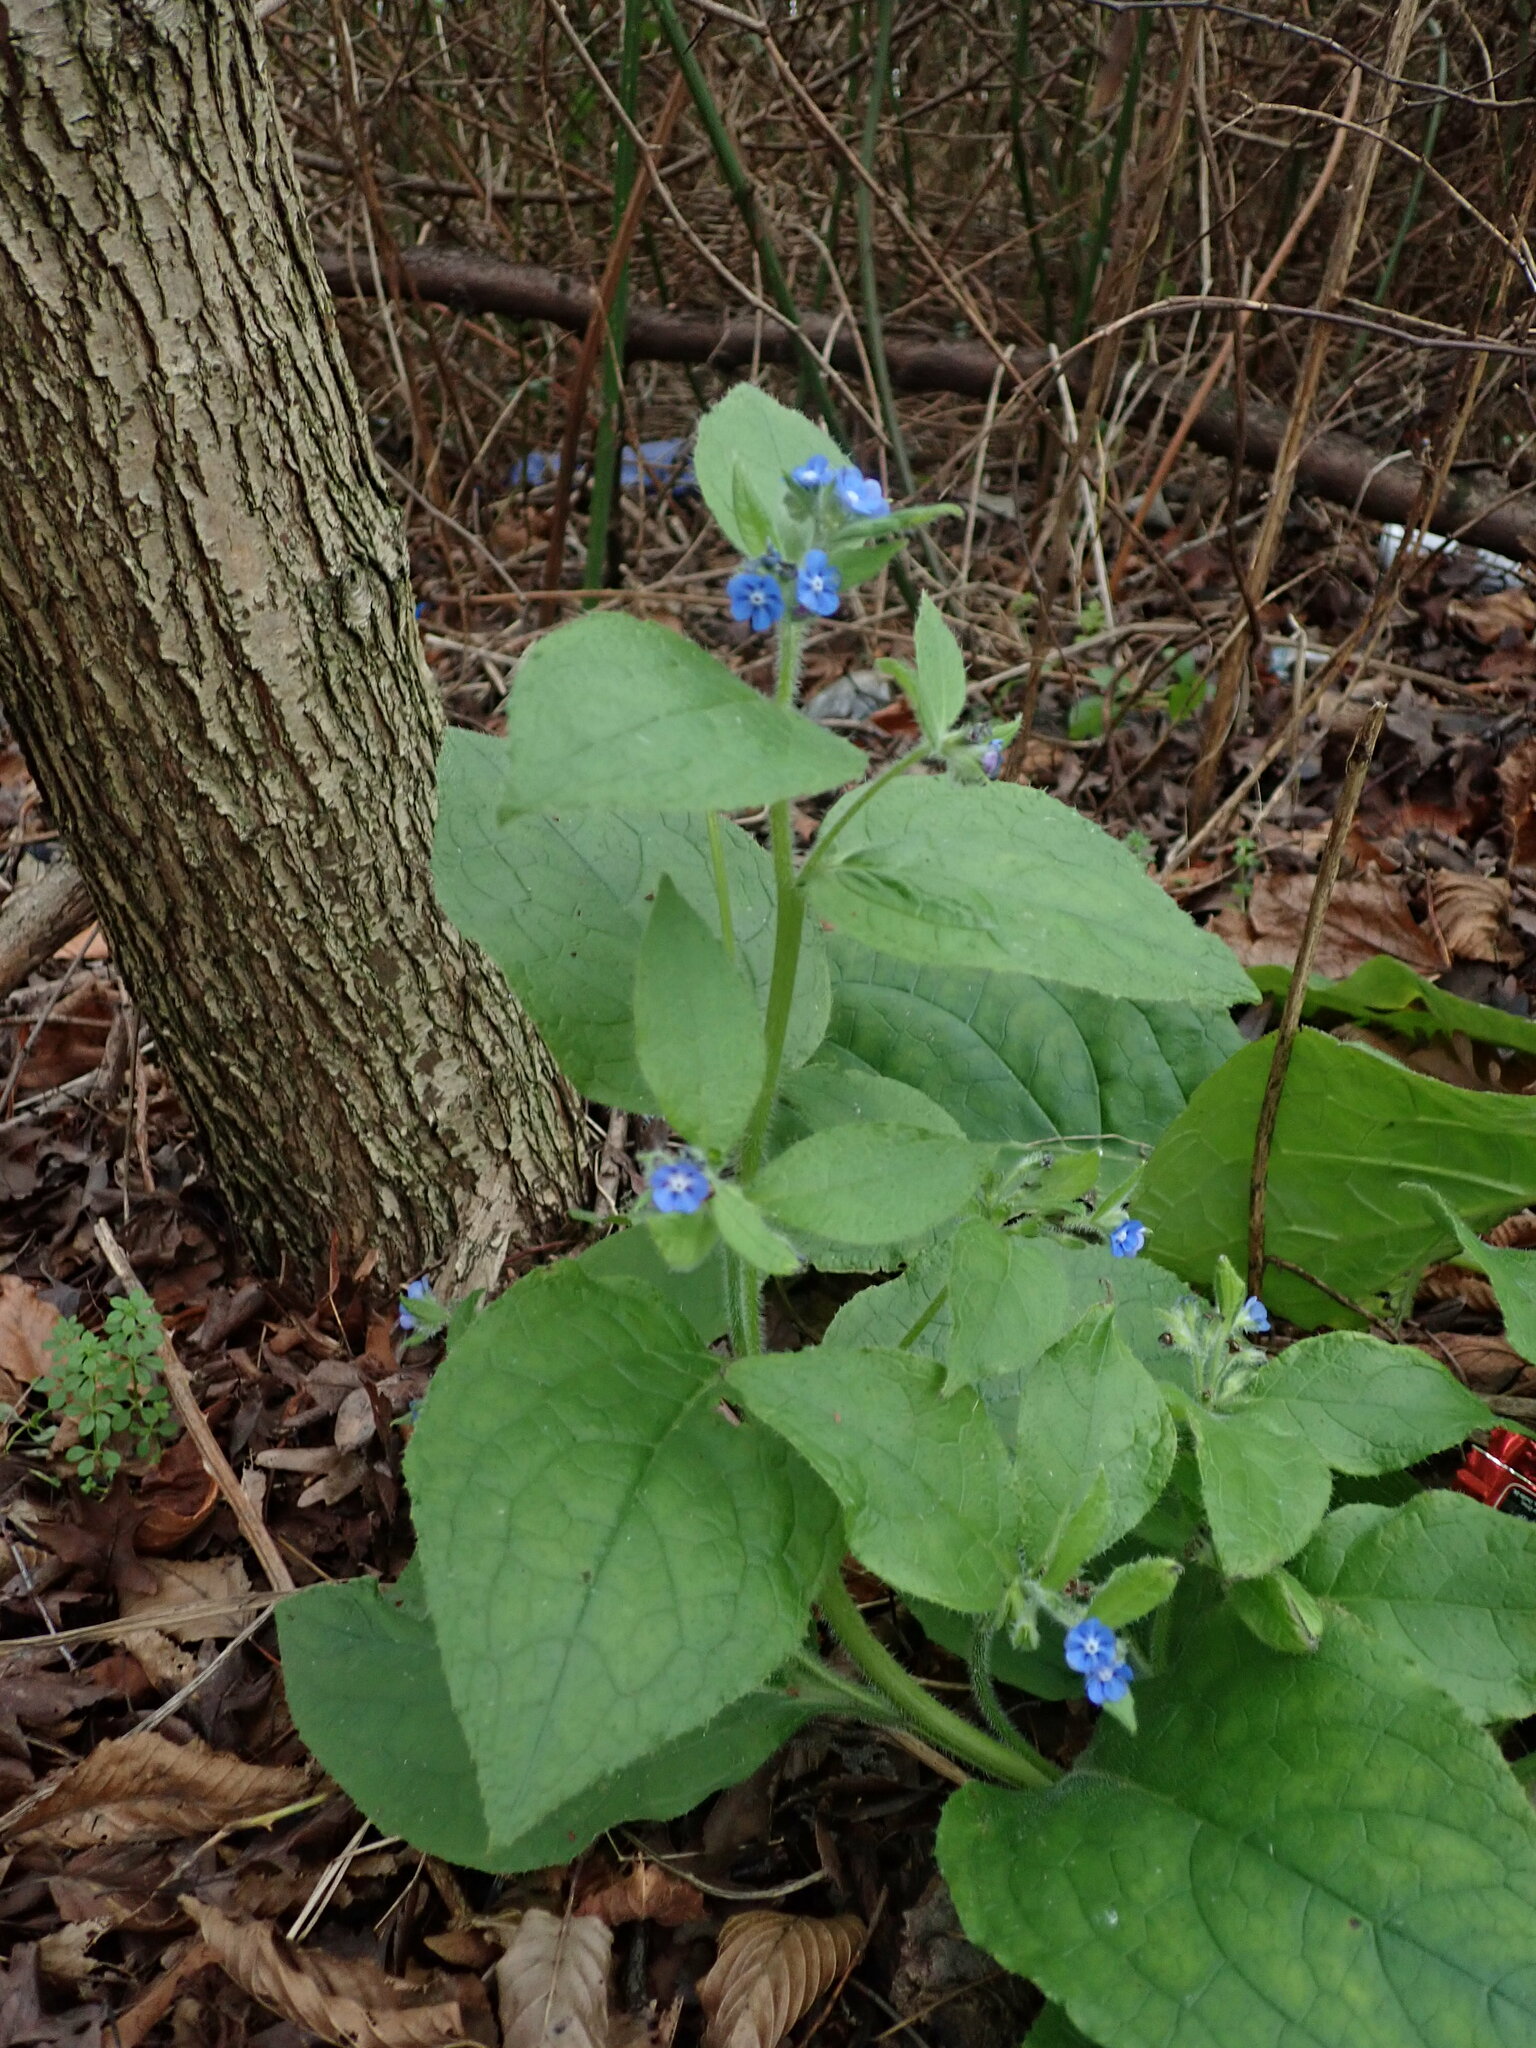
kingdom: Plantae
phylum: Tracheophyta
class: Magnoliopsida
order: Boraginales
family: Boraginaceae
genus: Pentaglottis
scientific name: Pentaglottis sempervirens
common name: Green alkanet
